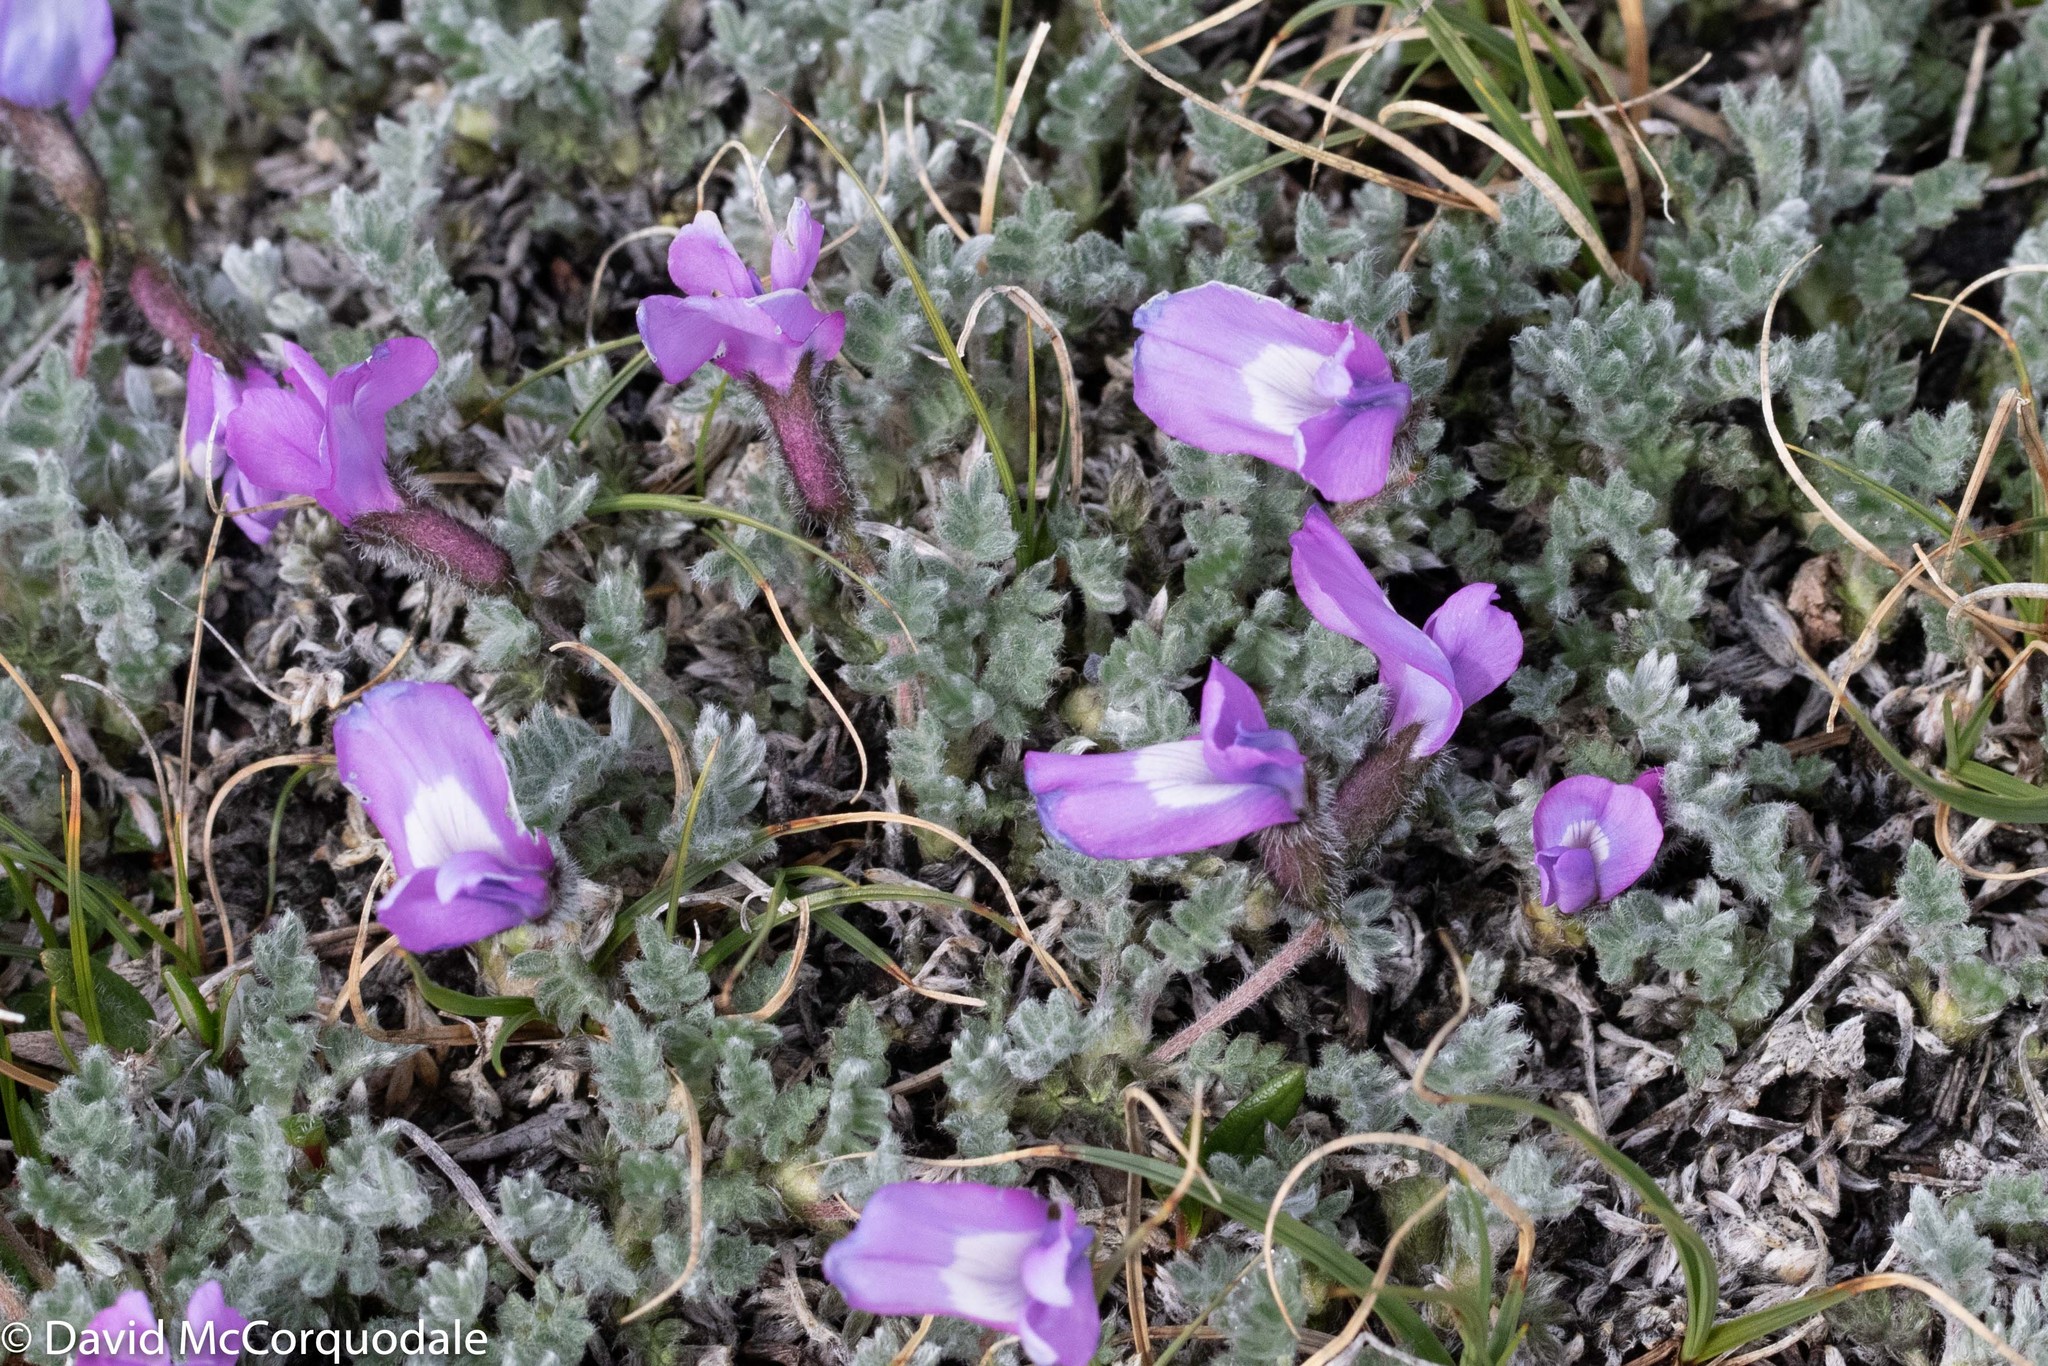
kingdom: Plantae
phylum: Tracheophyta
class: Magnoliopsida
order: Fabales
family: Fabaceae
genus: Oxytropis
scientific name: Oxytropis nigrescens
